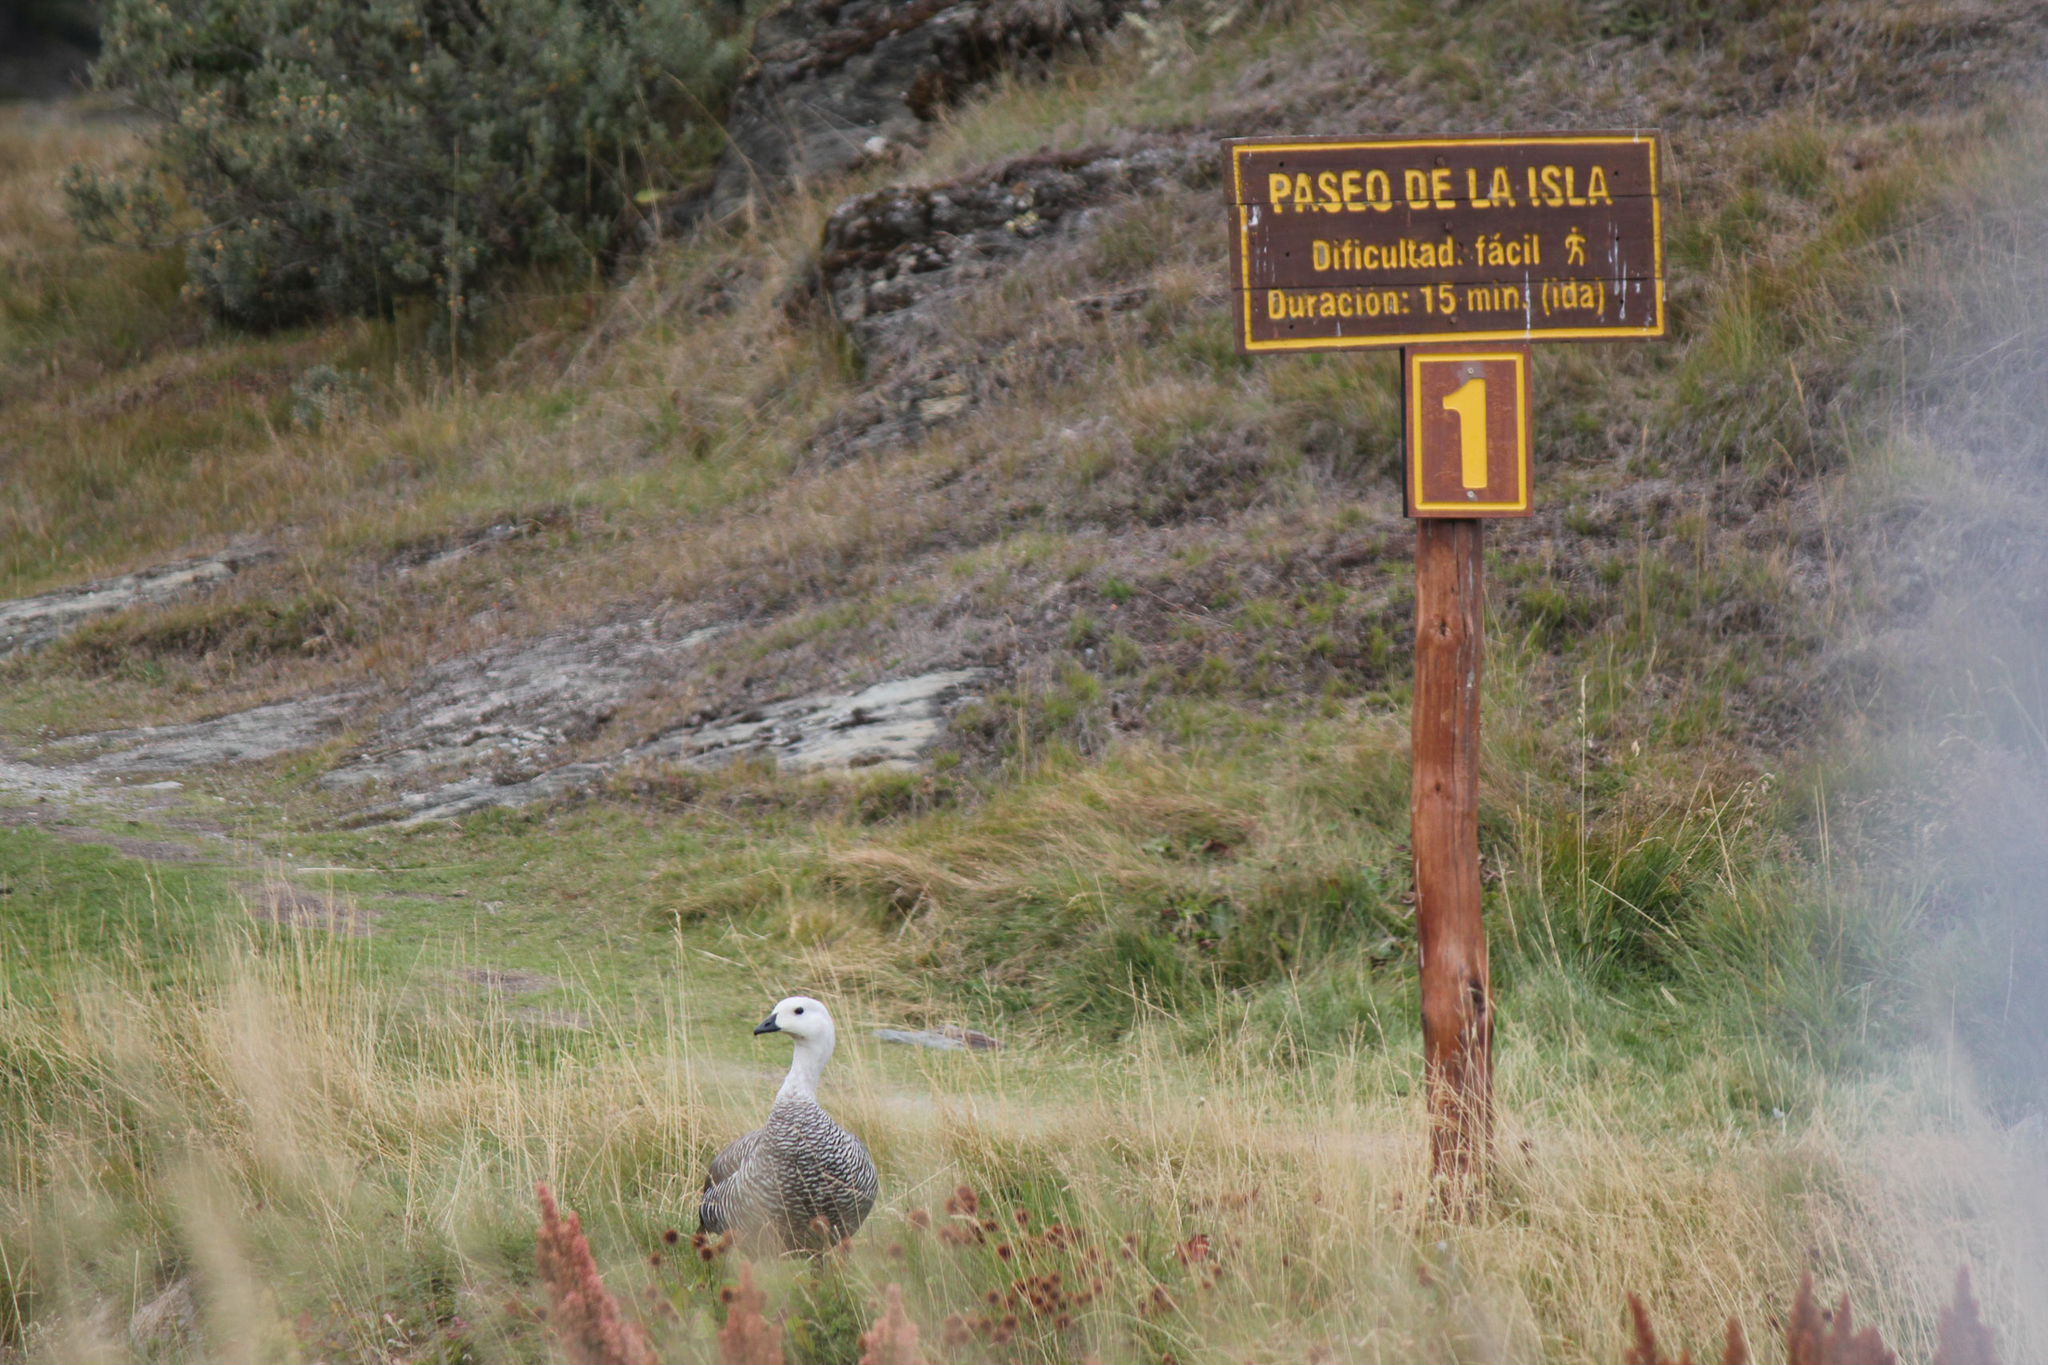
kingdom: Animalia
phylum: Chordata
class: Aves
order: Anseriformes
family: Anatidae
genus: Chloephaga
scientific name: Chloephaga picta
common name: Upland goose
